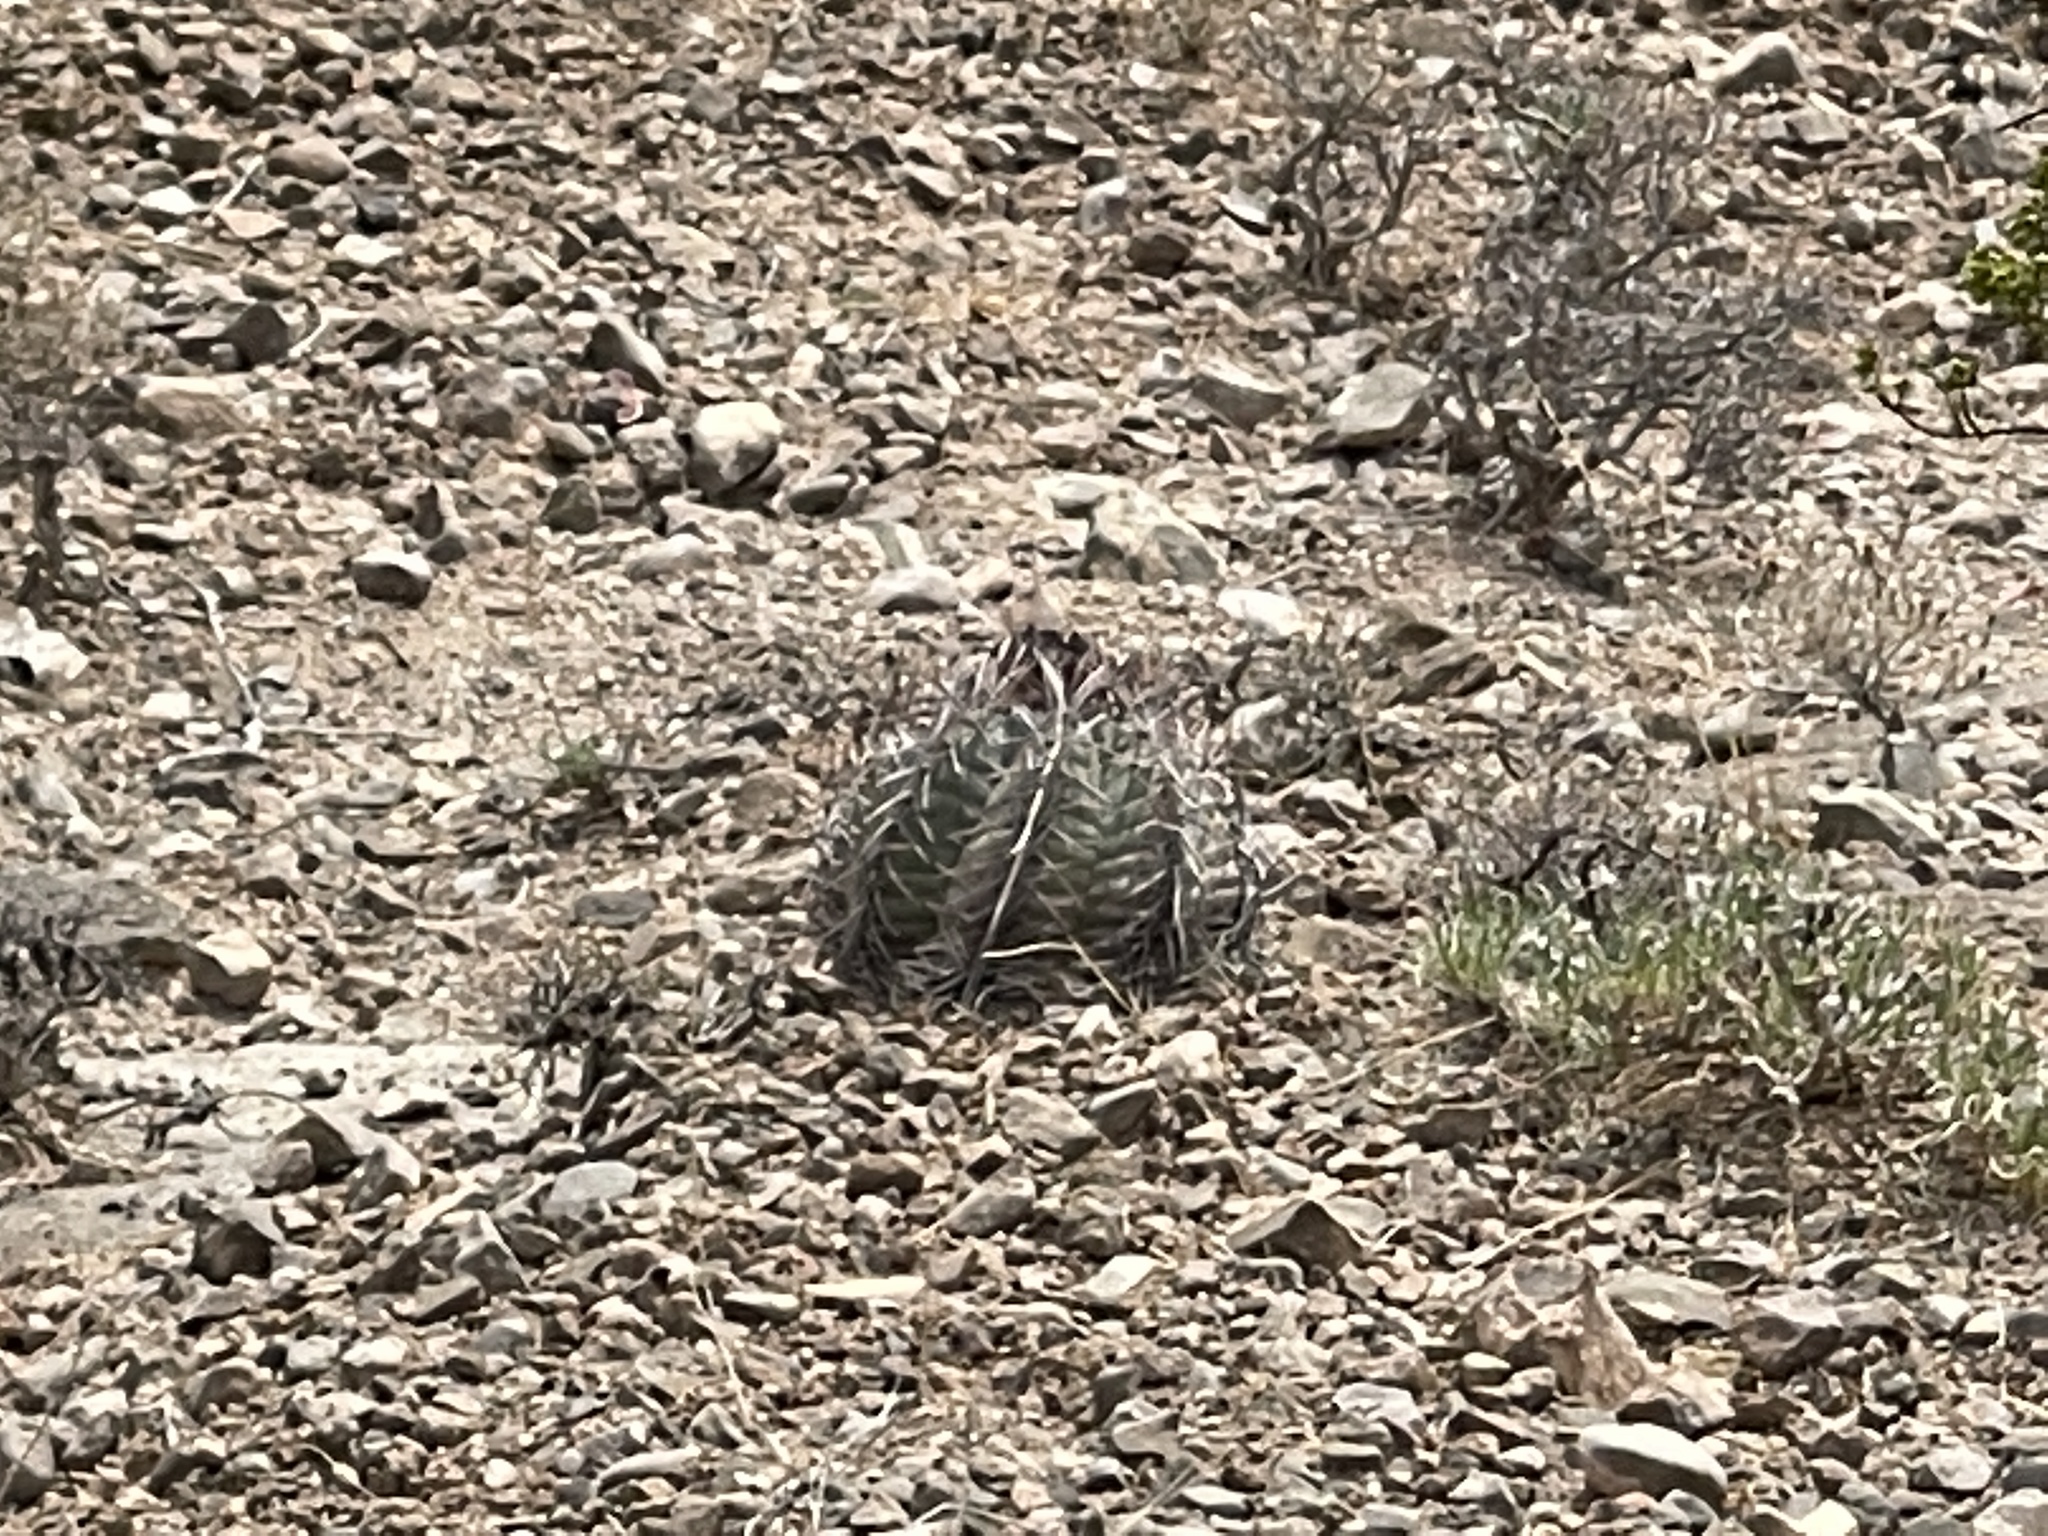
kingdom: Plantae
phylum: Tracheophyta
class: Magnoliopsida
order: Caryophyllales
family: Cactaceae
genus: Echinocactus
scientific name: Echinocactus horizonthalonius
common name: Devilshead
